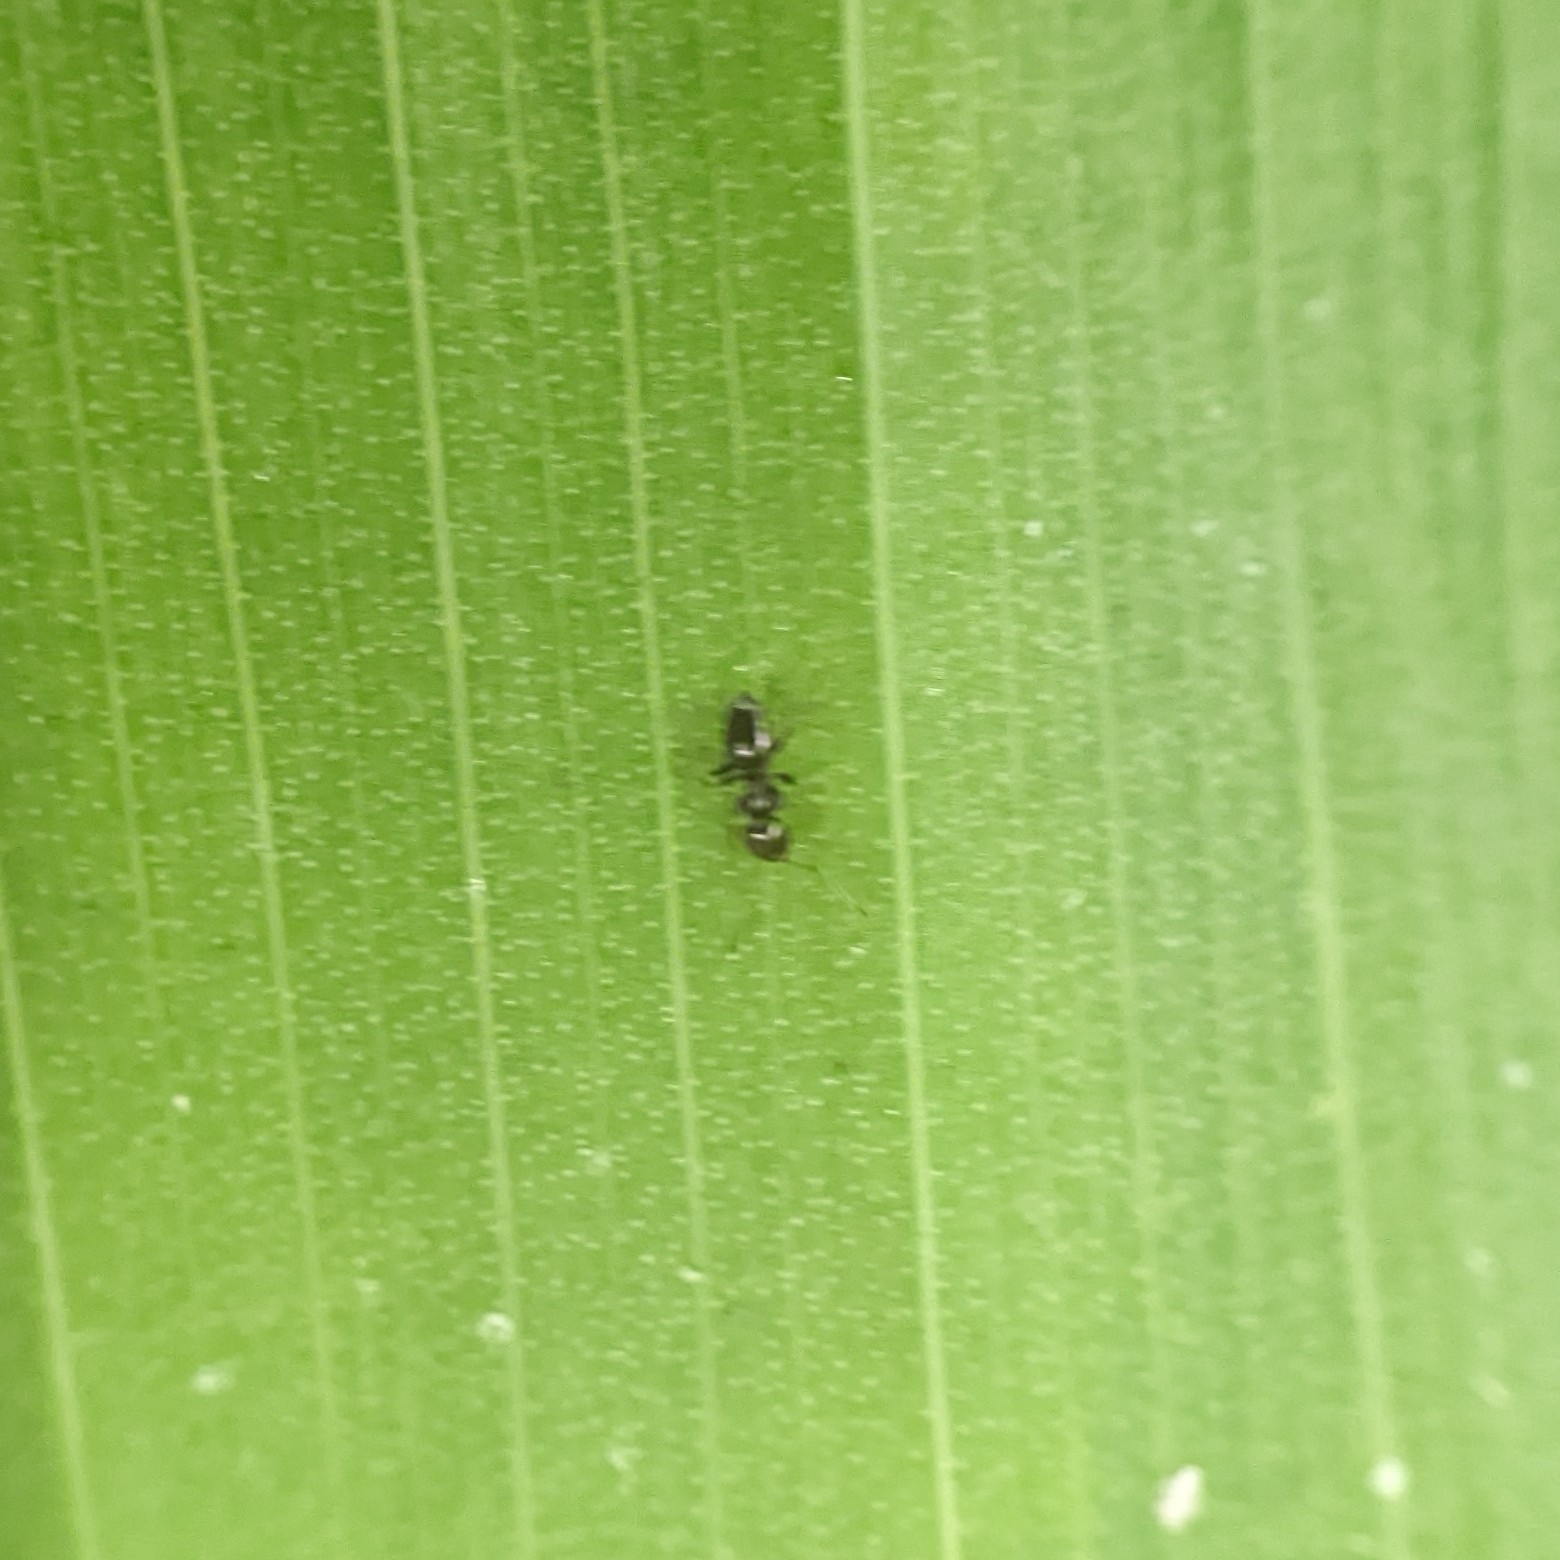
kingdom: Animalia
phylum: Arthropoda
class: Insecta
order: Hymenoptera
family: Formicidae
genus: Brachymyrmex
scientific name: Brachymyrmex patagonicus
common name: Dark rover ant
